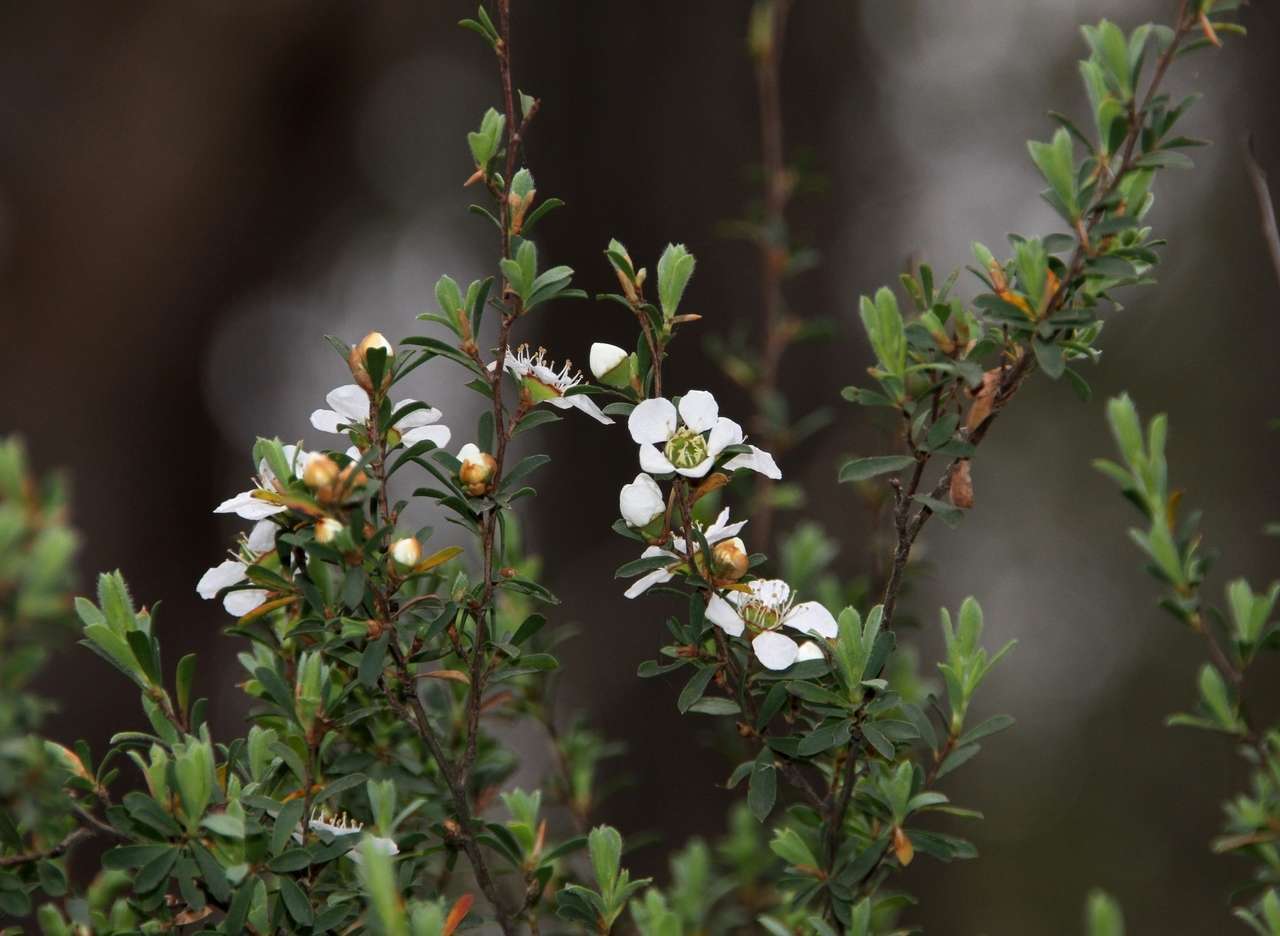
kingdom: Plantae
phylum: Tracheophyta
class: Magnoliopsida
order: Myrtales
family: Myrtaceae
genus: Leptospermum
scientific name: Leptospermum myrsinoides
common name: Heath teatree
